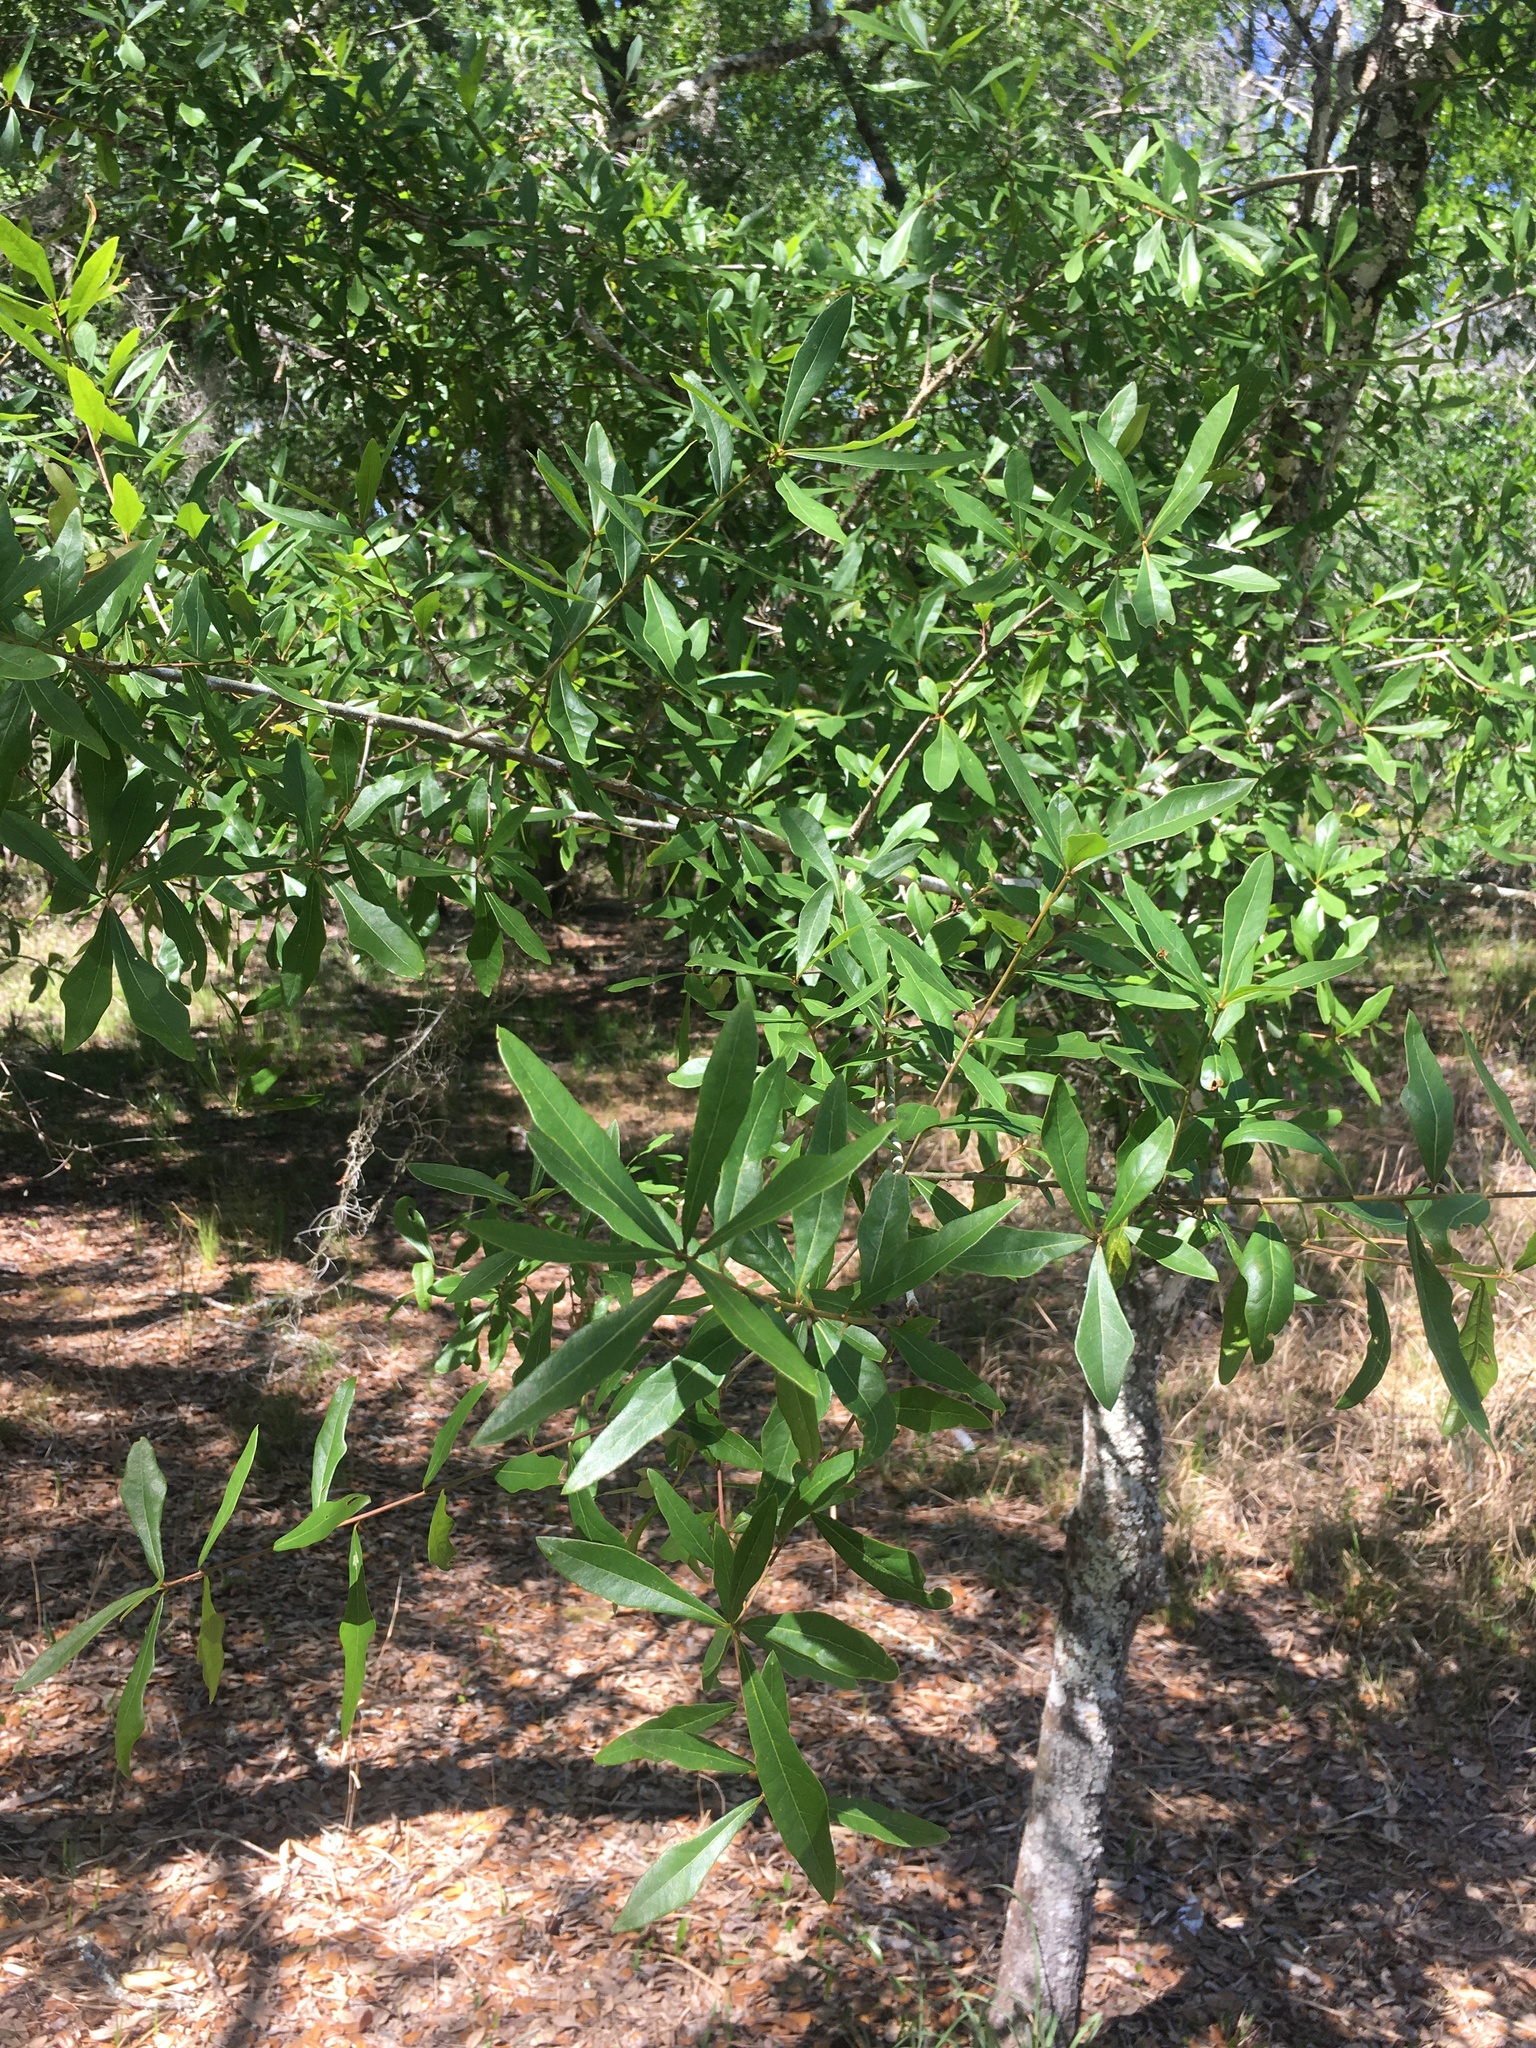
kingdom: Plantae
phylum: Tracheophyta
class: Magnoliopsida
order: Fagales
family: Fagaceae
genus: Quercus
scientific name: Quercus laurifolia
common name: Swamp laurel oak
